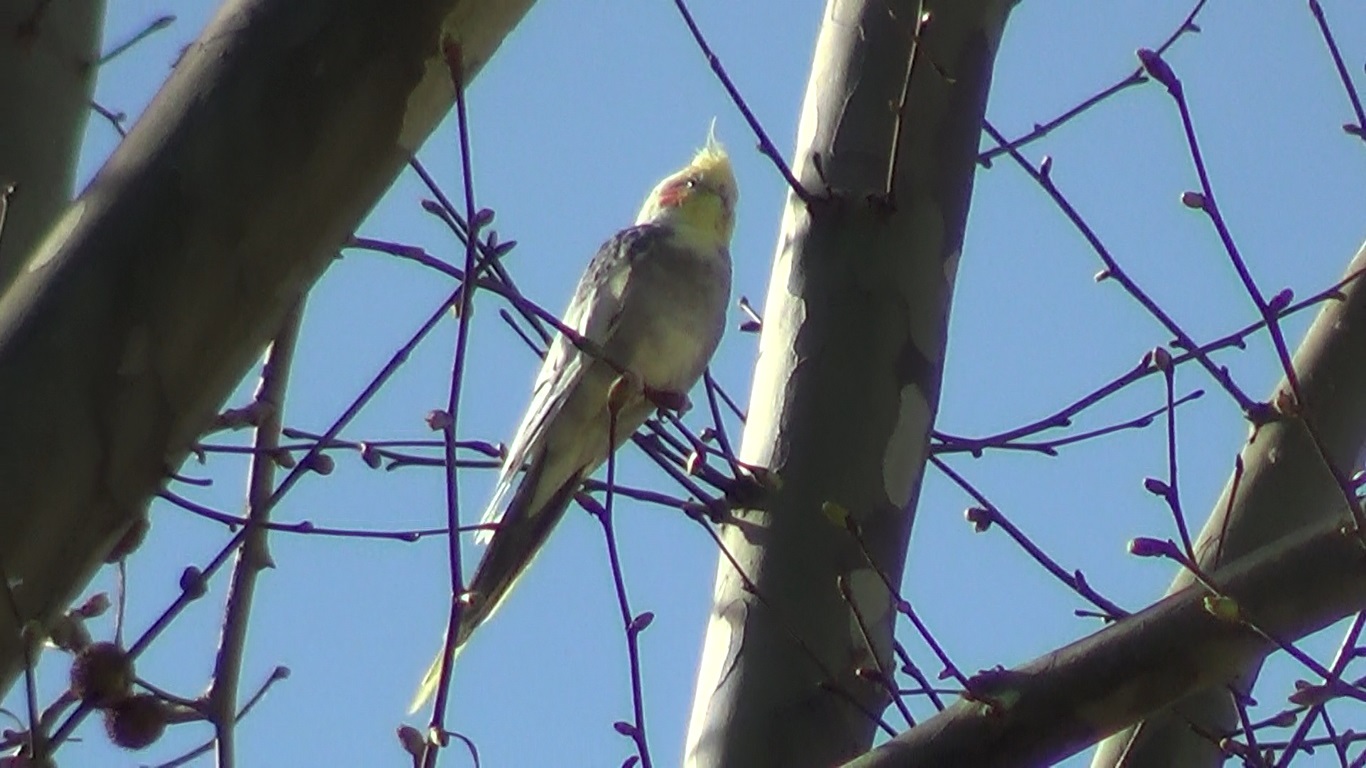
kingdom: Animalia
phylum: Chordata
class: Aves
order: Psittaciformes
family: Psittacidae
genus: Nymphicus
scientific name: Nymphicus hollandicus
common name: Cockatiel
